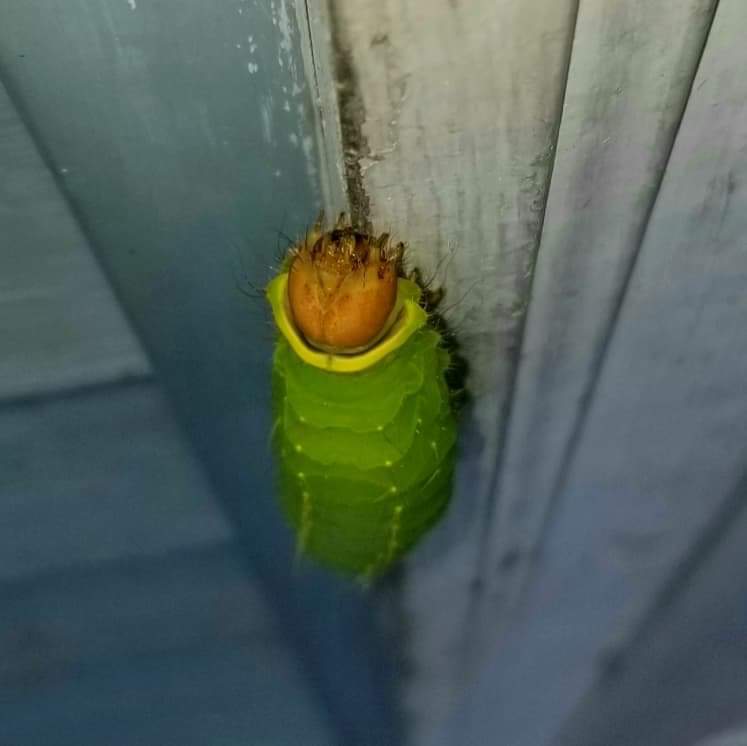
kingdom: Animalia
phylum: Arthropoda
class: Insecta
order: Lepidoptera
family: Saturniidae
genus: Antheraea
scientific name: Antheraea polyphemus
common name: Polyphemus moth
